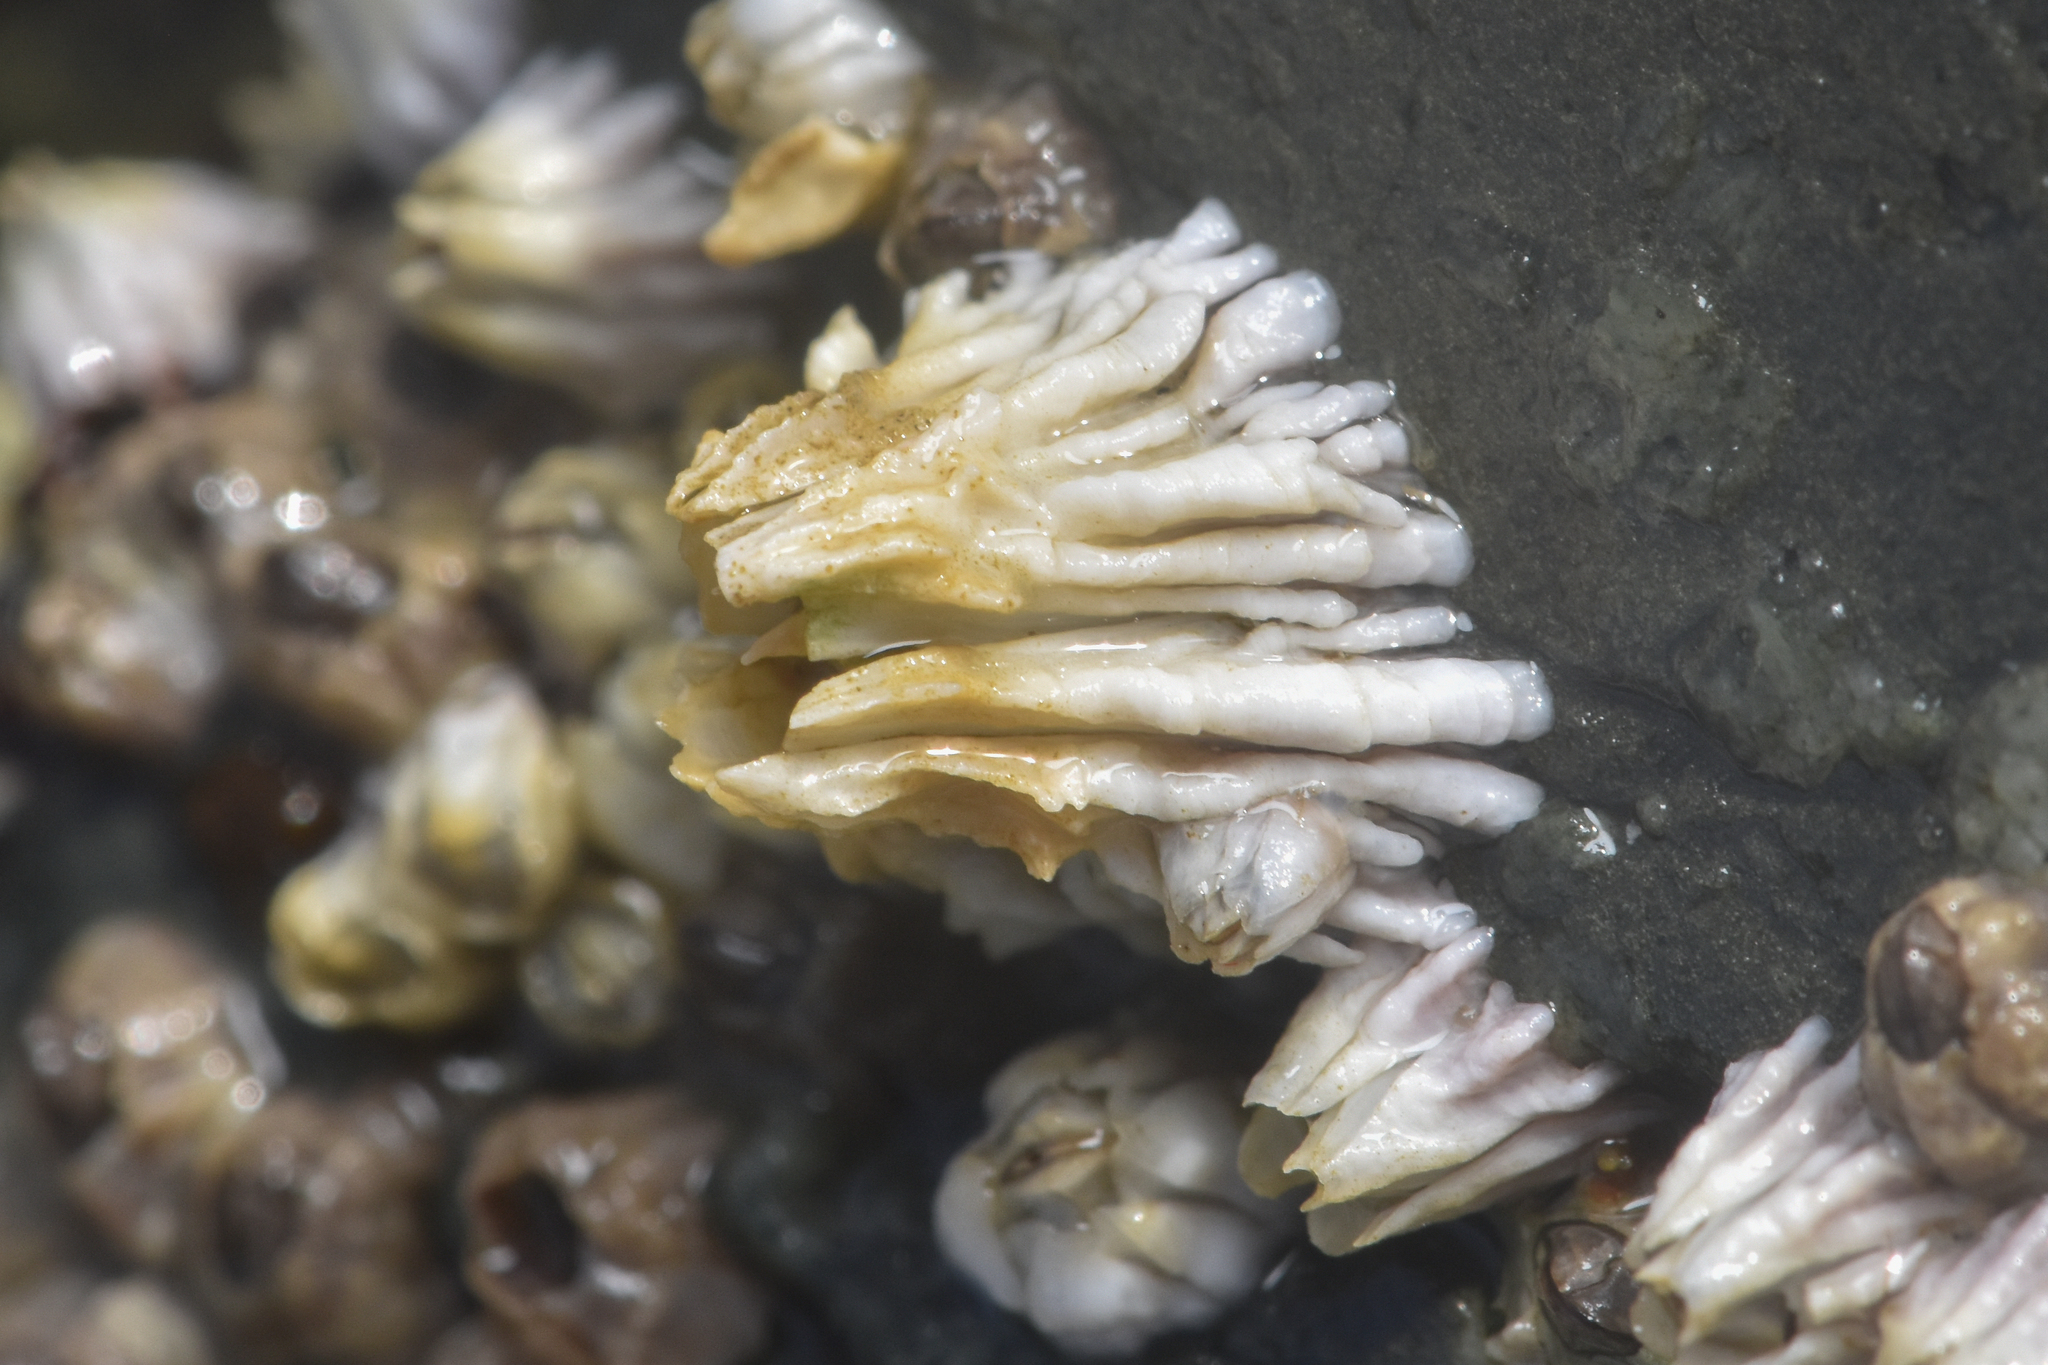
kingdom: Animalia
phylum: Arthropoda
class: Maxillopoda
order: Sessilia
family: Archaeobalanidae
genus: Semibalanus
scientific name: Semibalanus cariosus
